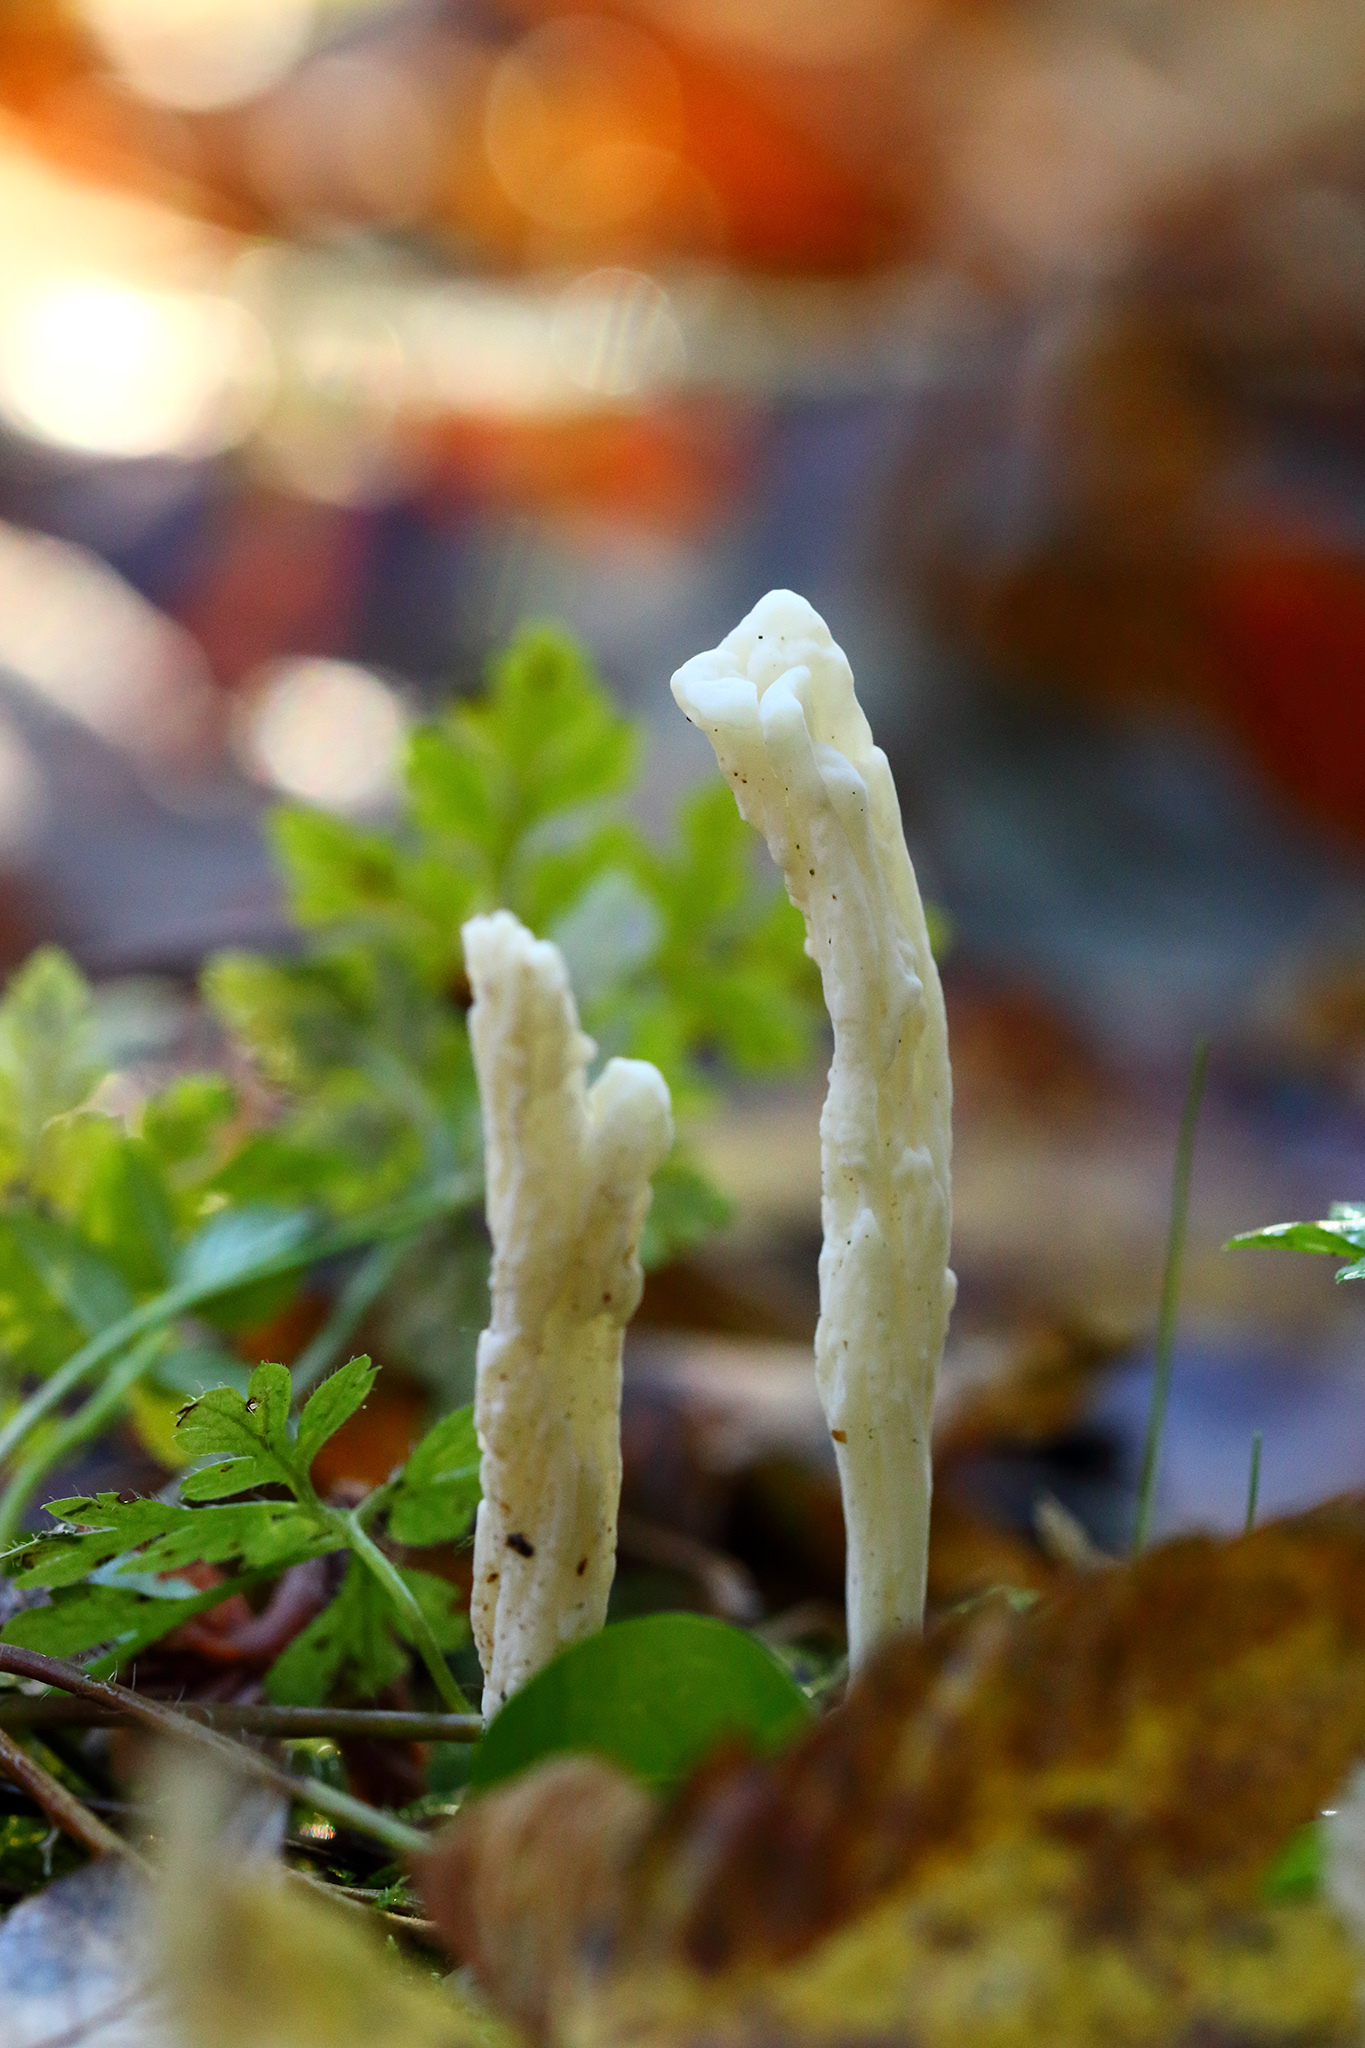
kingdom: Fungi
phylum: Basidiomycota
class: Agaricomycetes
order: Cantharellales
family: Hydnaceae
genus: Clavulina
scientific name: Clavulina rugosa
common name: Wrinkled club
